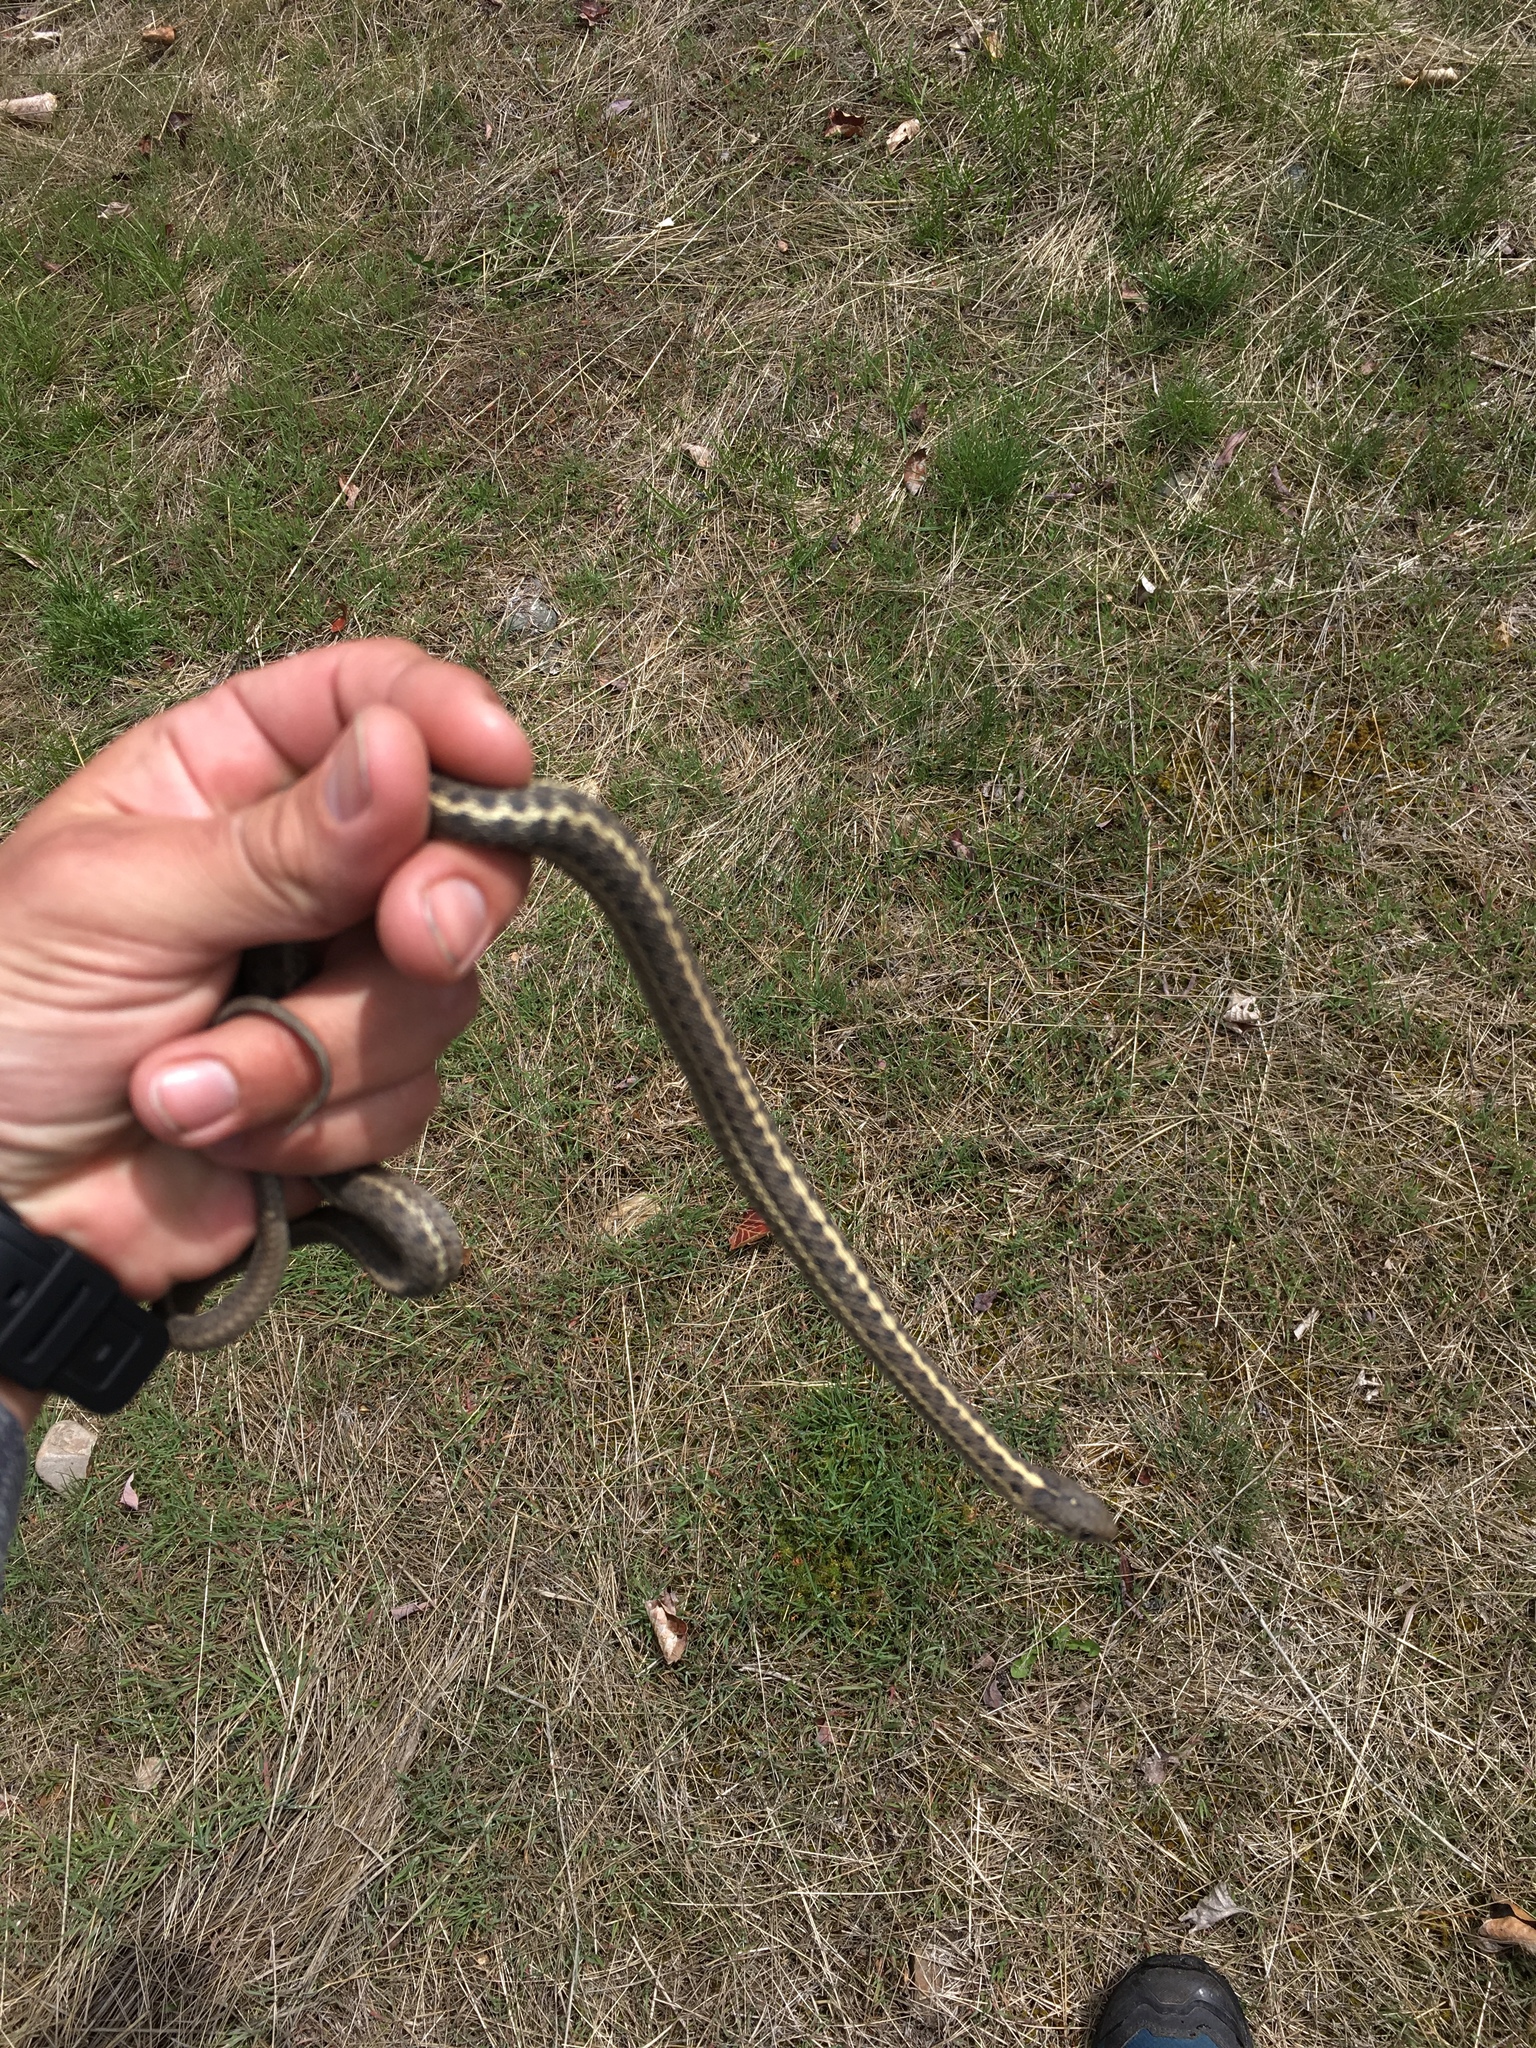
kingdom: Animalia
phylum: Chordata
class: Squamata
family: Colubridae
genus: Thamnophis
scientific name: Thamnophis elegans
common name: Western terrestrial garter snake
